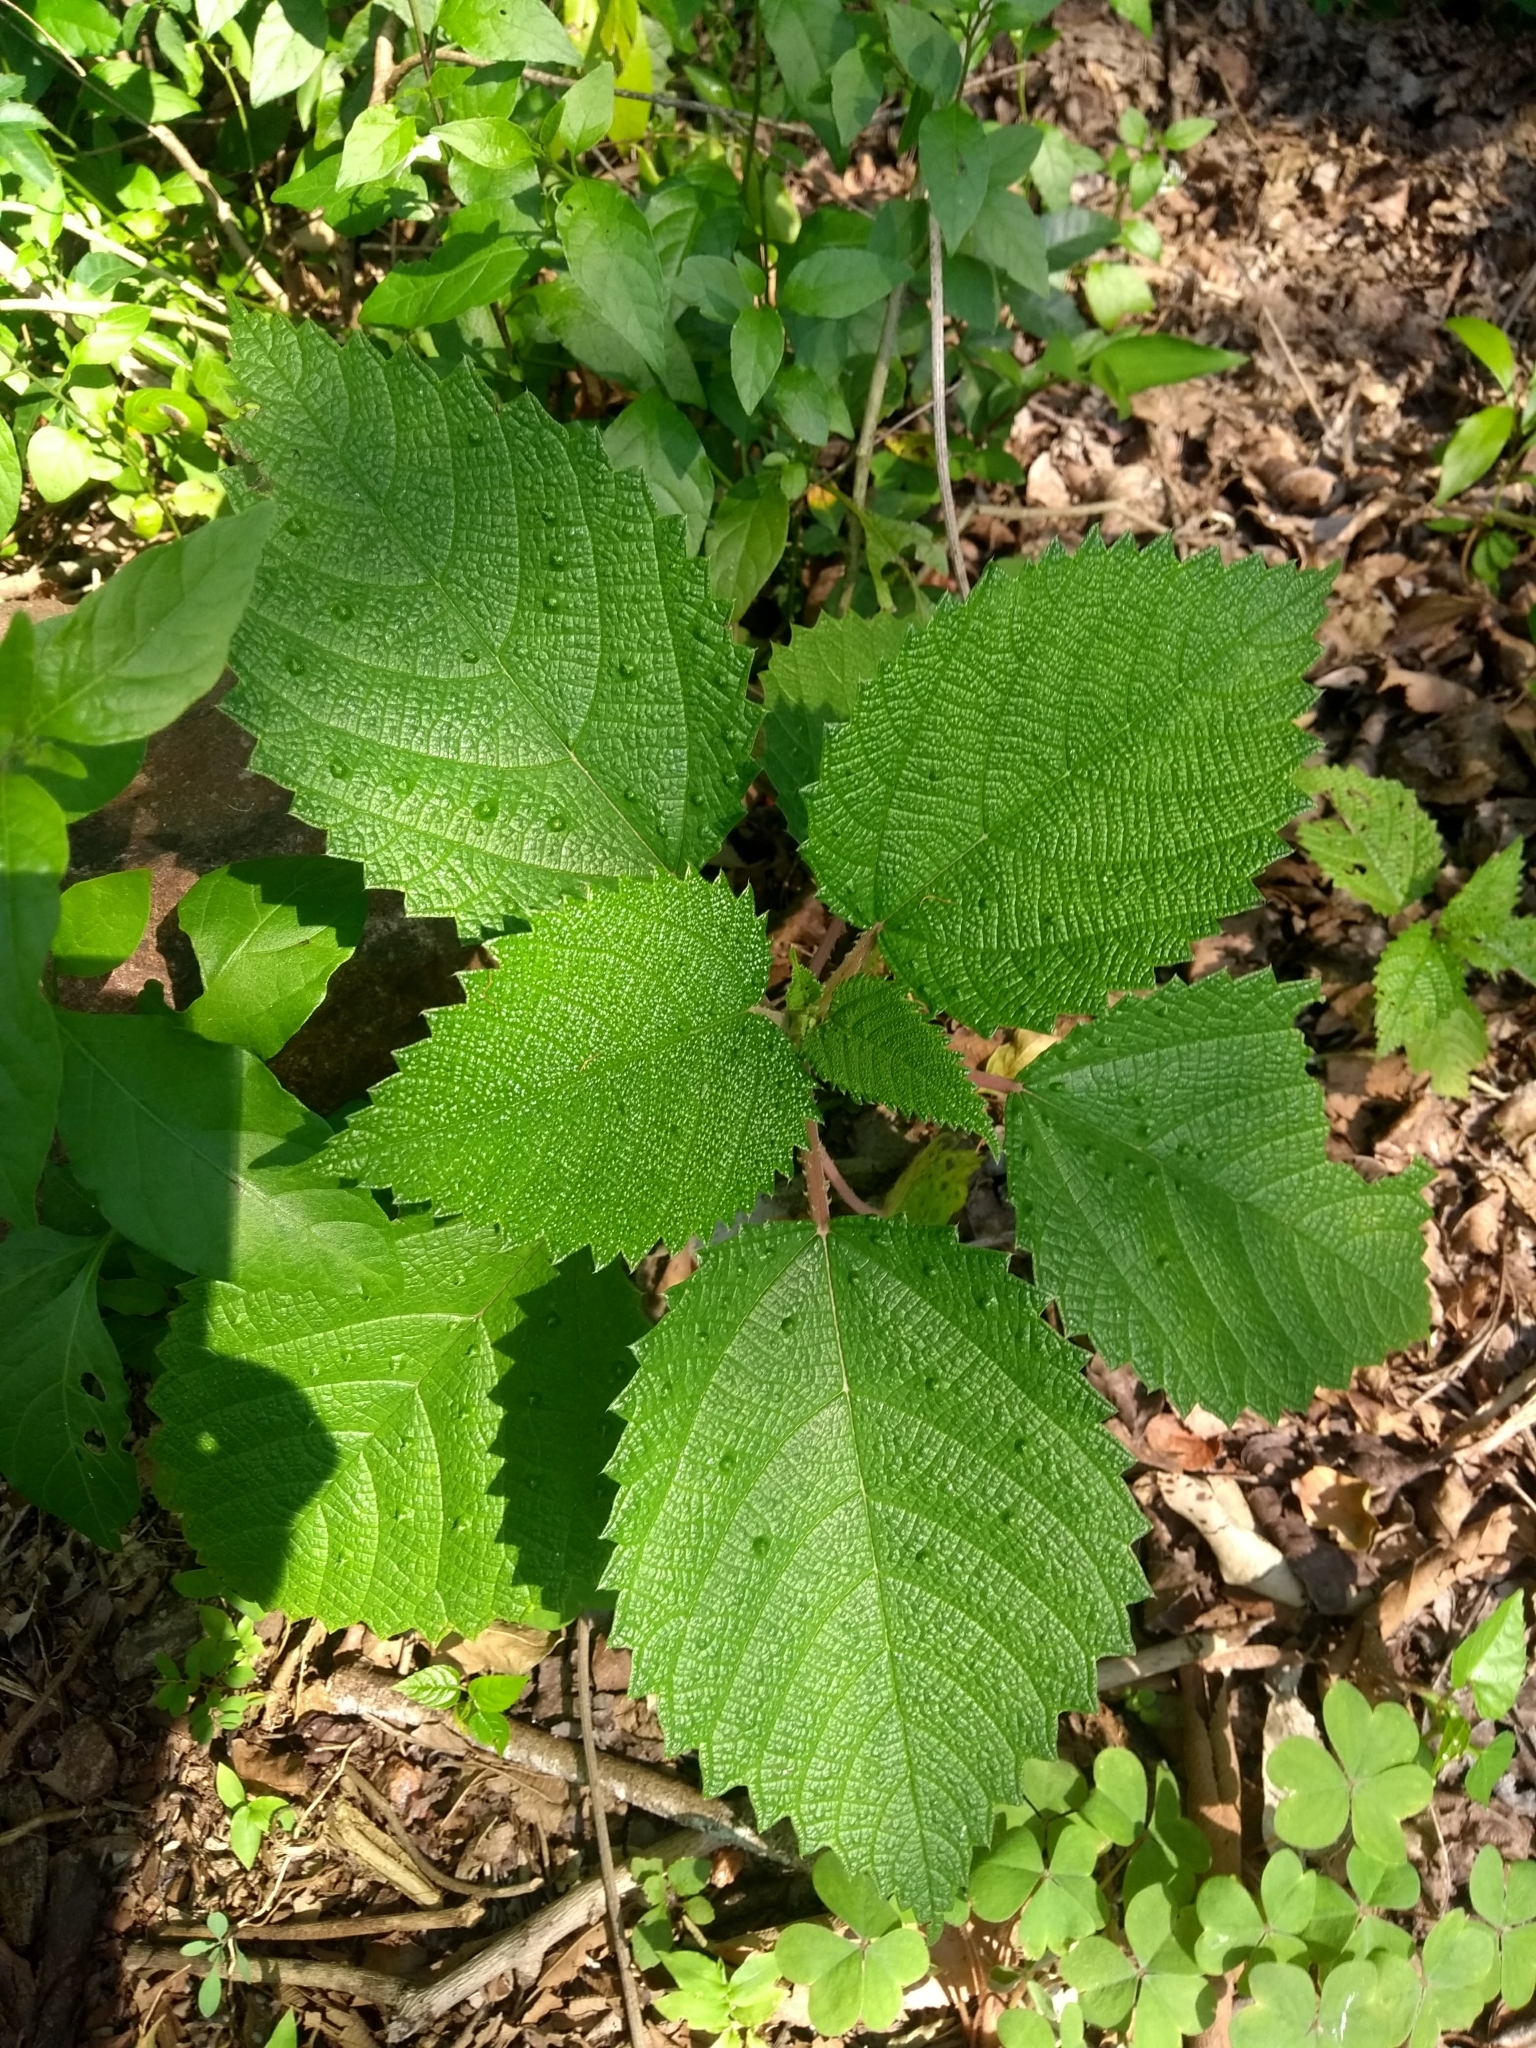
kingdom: Plantae
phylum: Tracheophyta
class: Magnoliopsida
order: Rosales
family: Urticaceae
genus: Urera
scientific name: Urera baccifera
